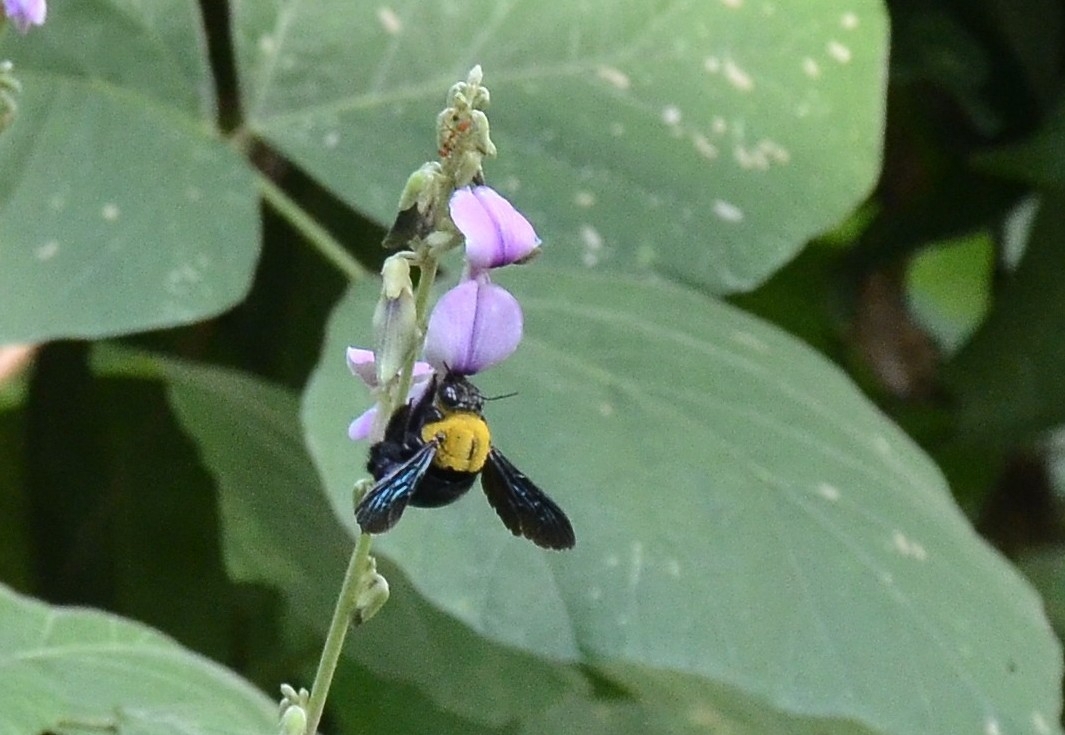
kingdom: Animalia
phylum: Arthropoda
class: Insecta
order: Hymenoptera
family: Apidae
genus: Xylocopa
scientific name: Xylocopa ruficornis
